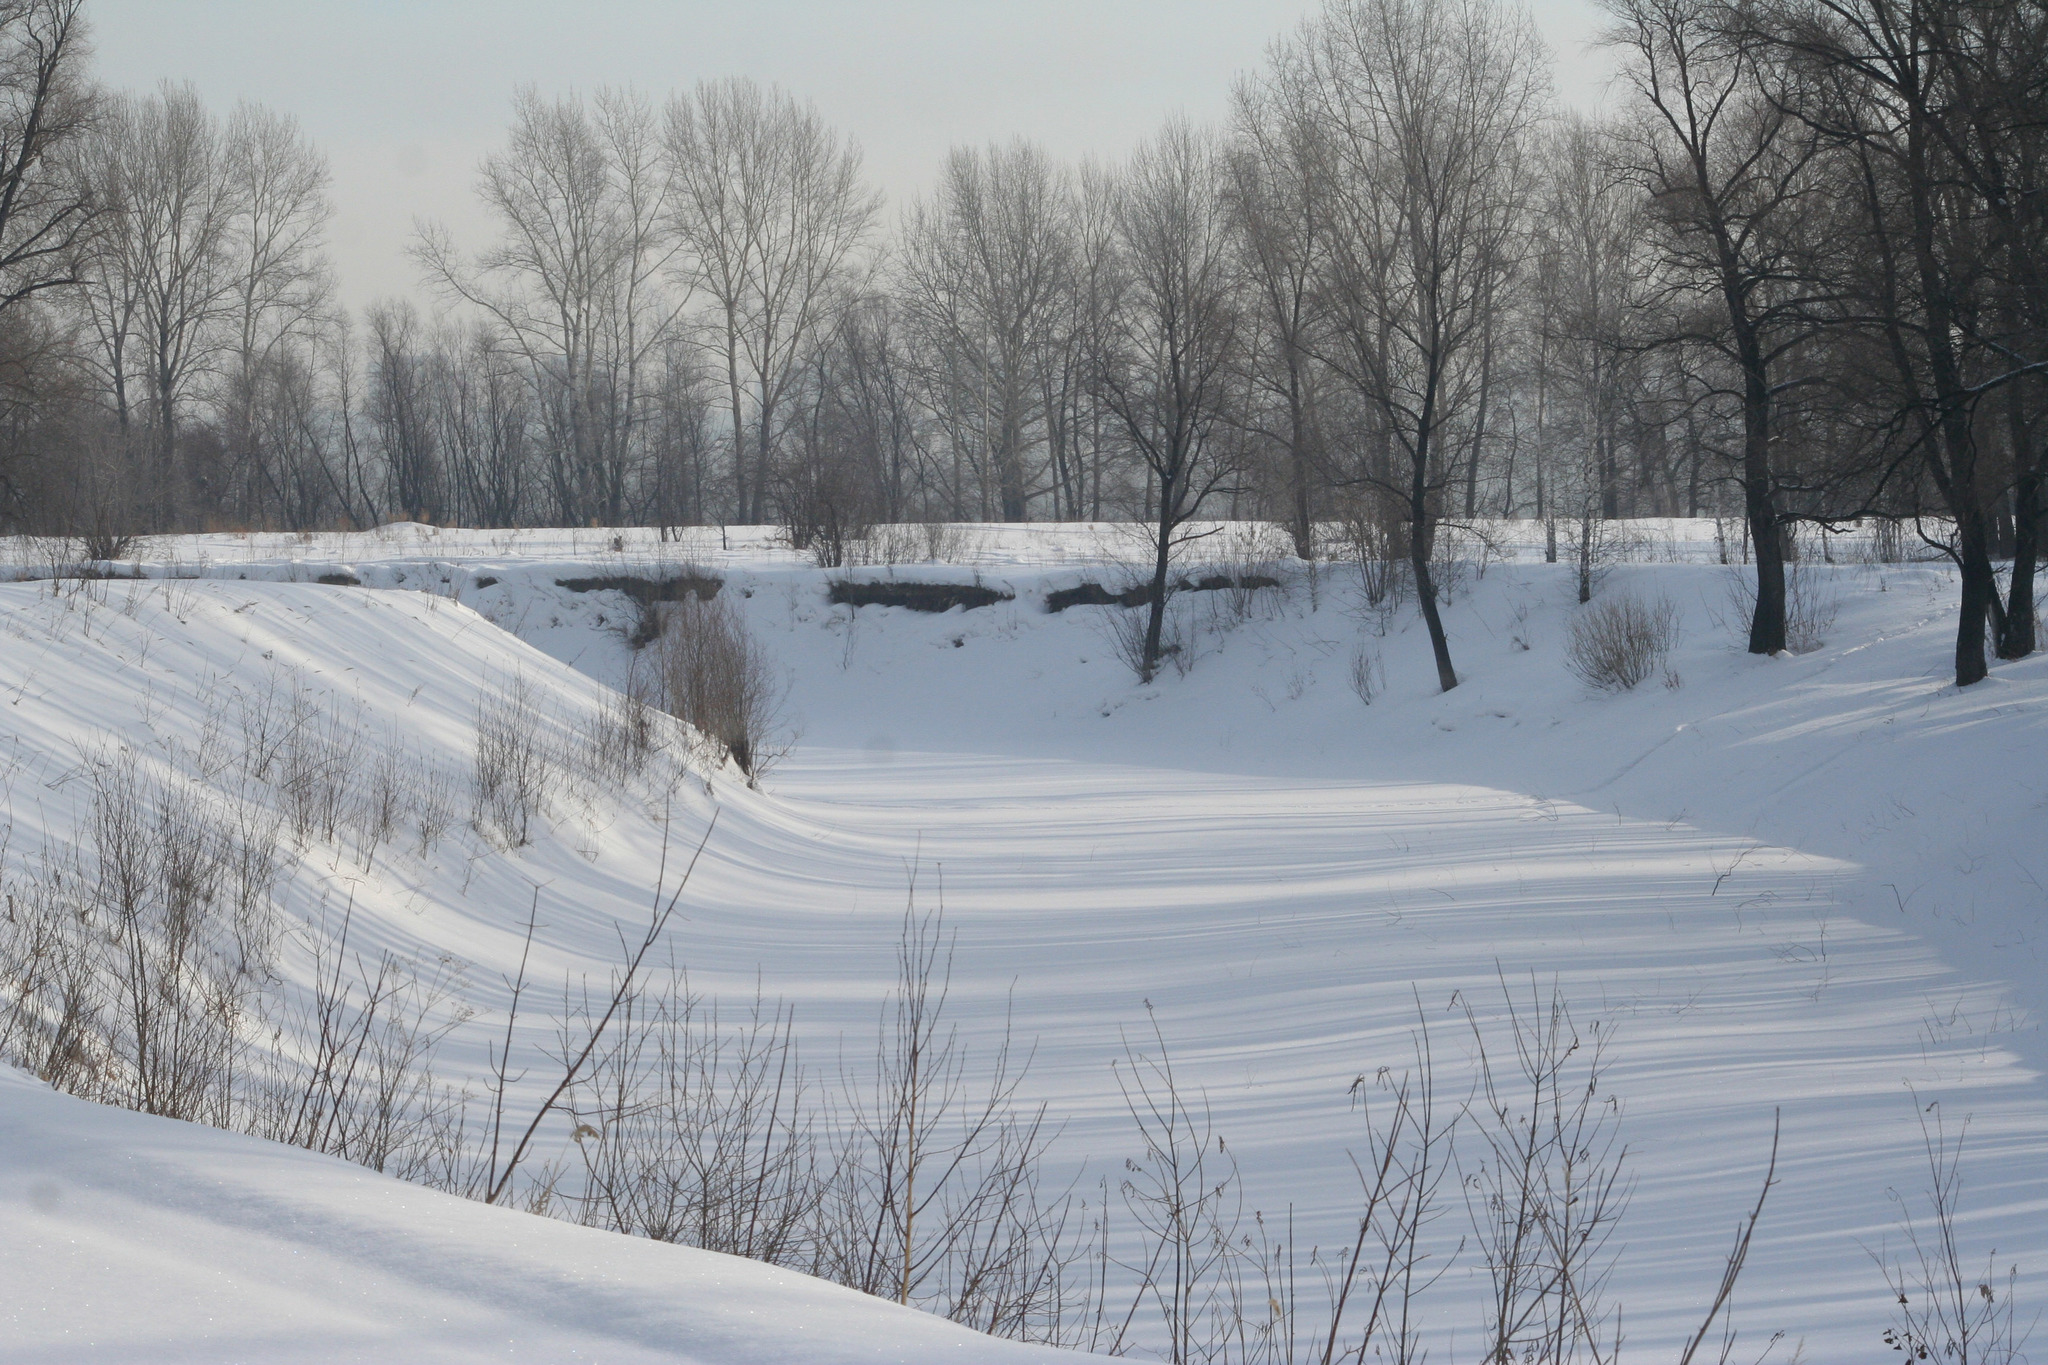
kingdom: Plantae
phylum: Tracheophyta
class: Magnoliopsida
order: Malpighiales
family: Salicaceae
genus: Salix
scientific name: Salix alba
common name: White willow
